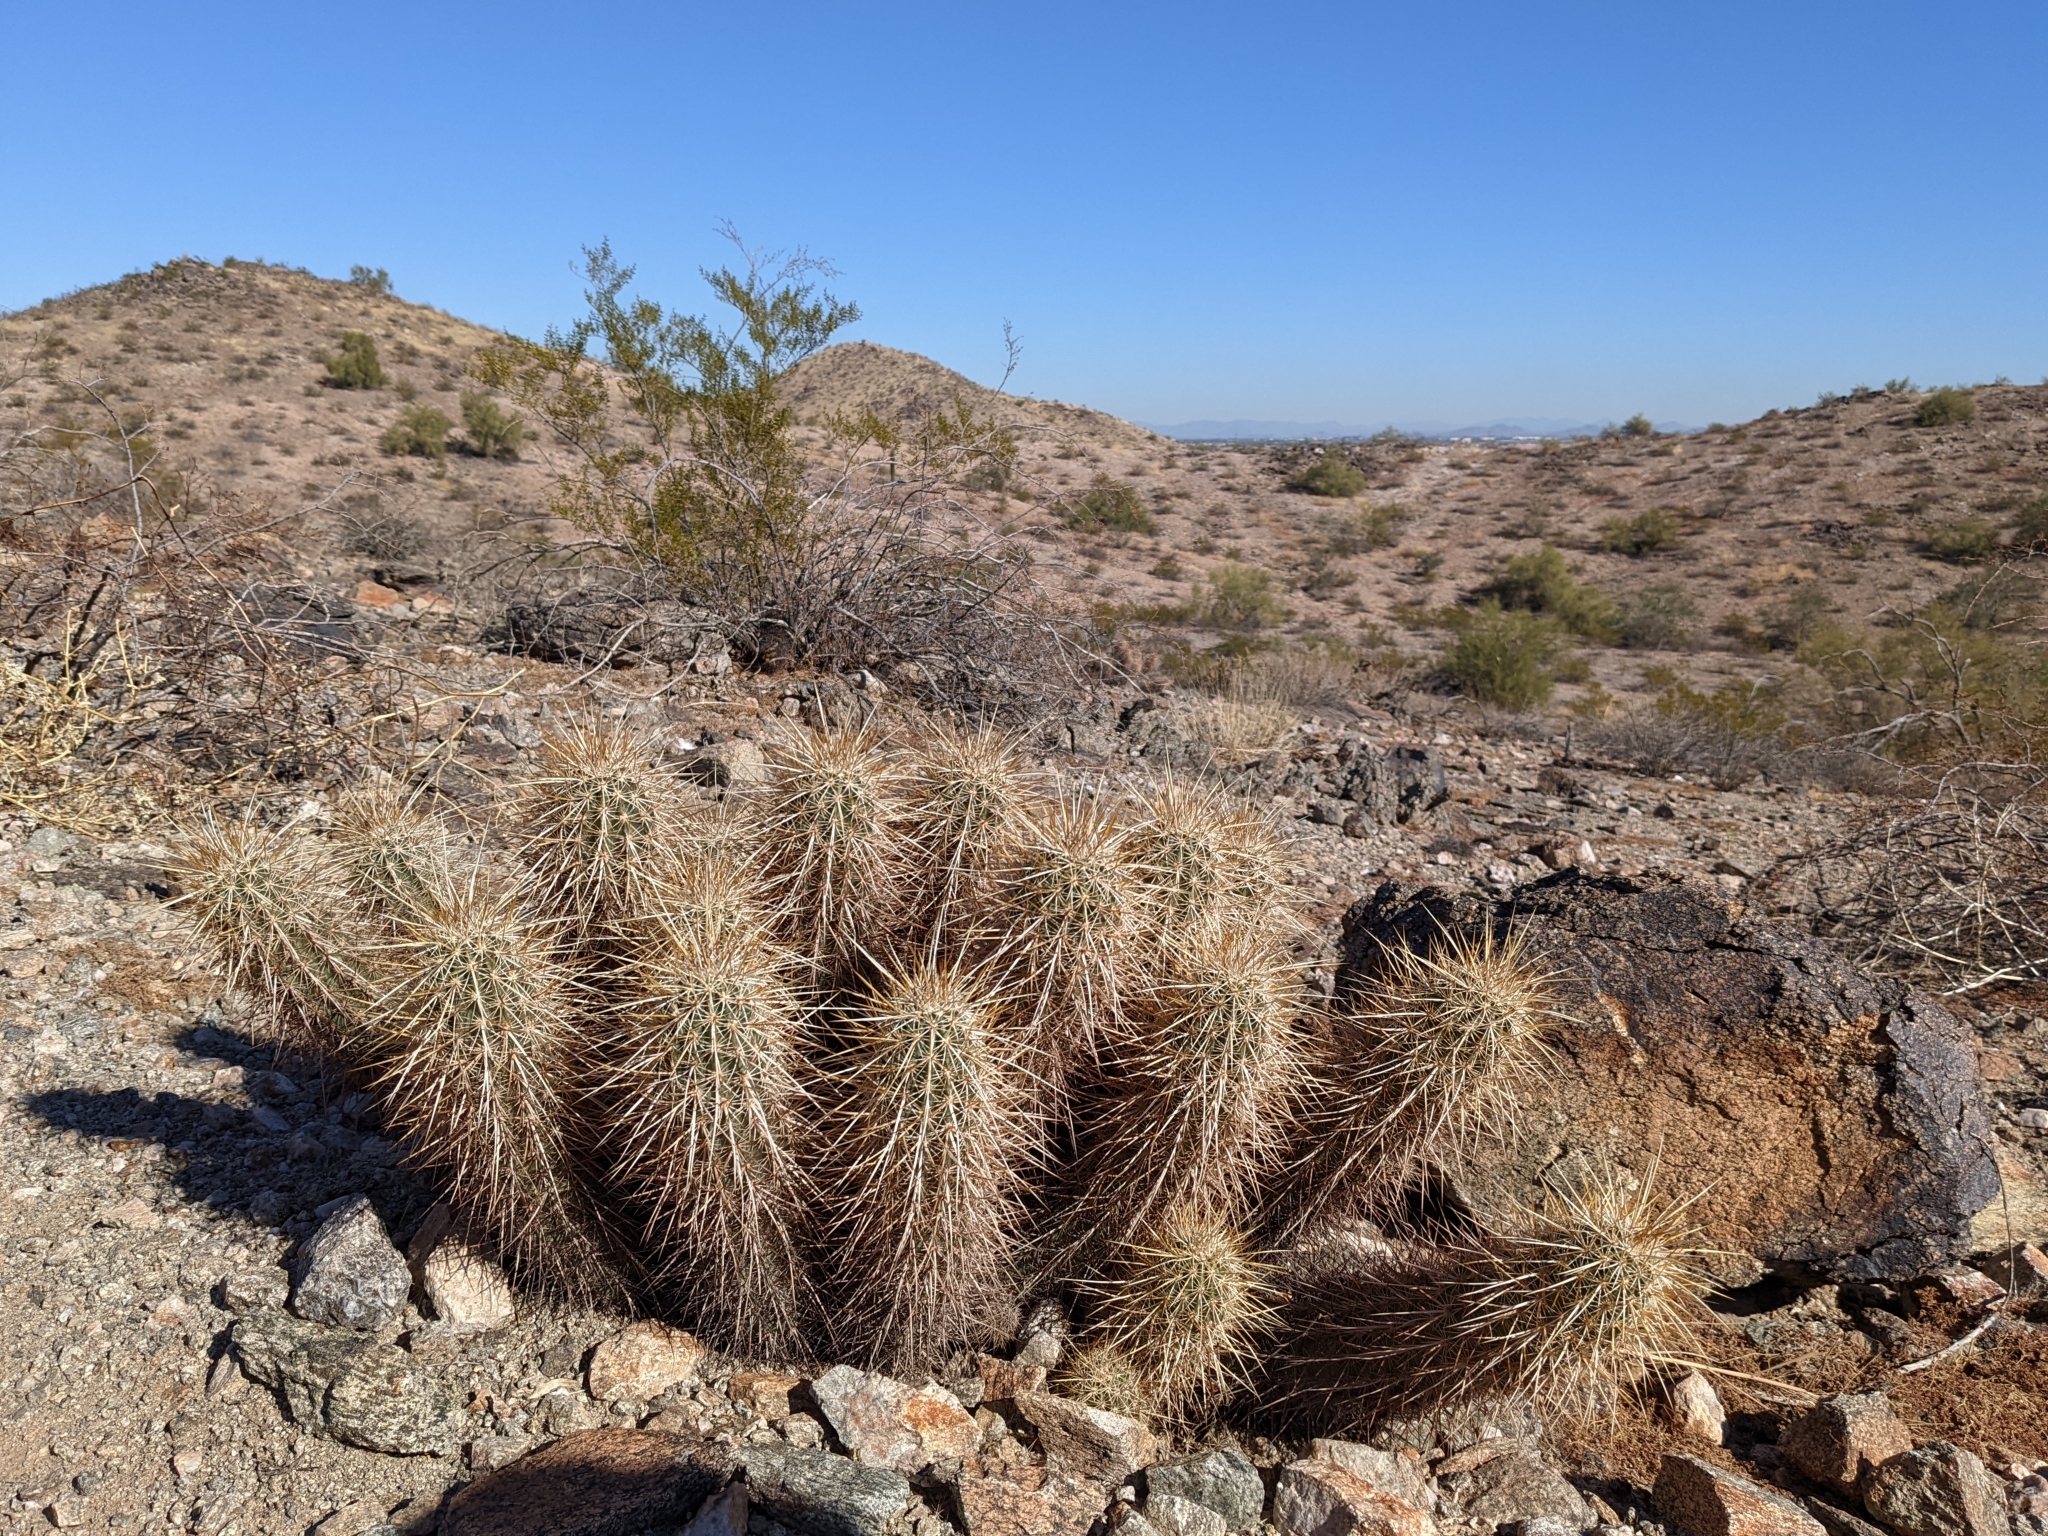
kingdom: Plantae
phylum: Tracheophyta
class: Magnoliopsida
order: Caryophyllales
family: Cactaceae
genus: Echinocereus
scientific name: Echinocereus engelmannii
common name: Engelmann's hedgehog cactus
